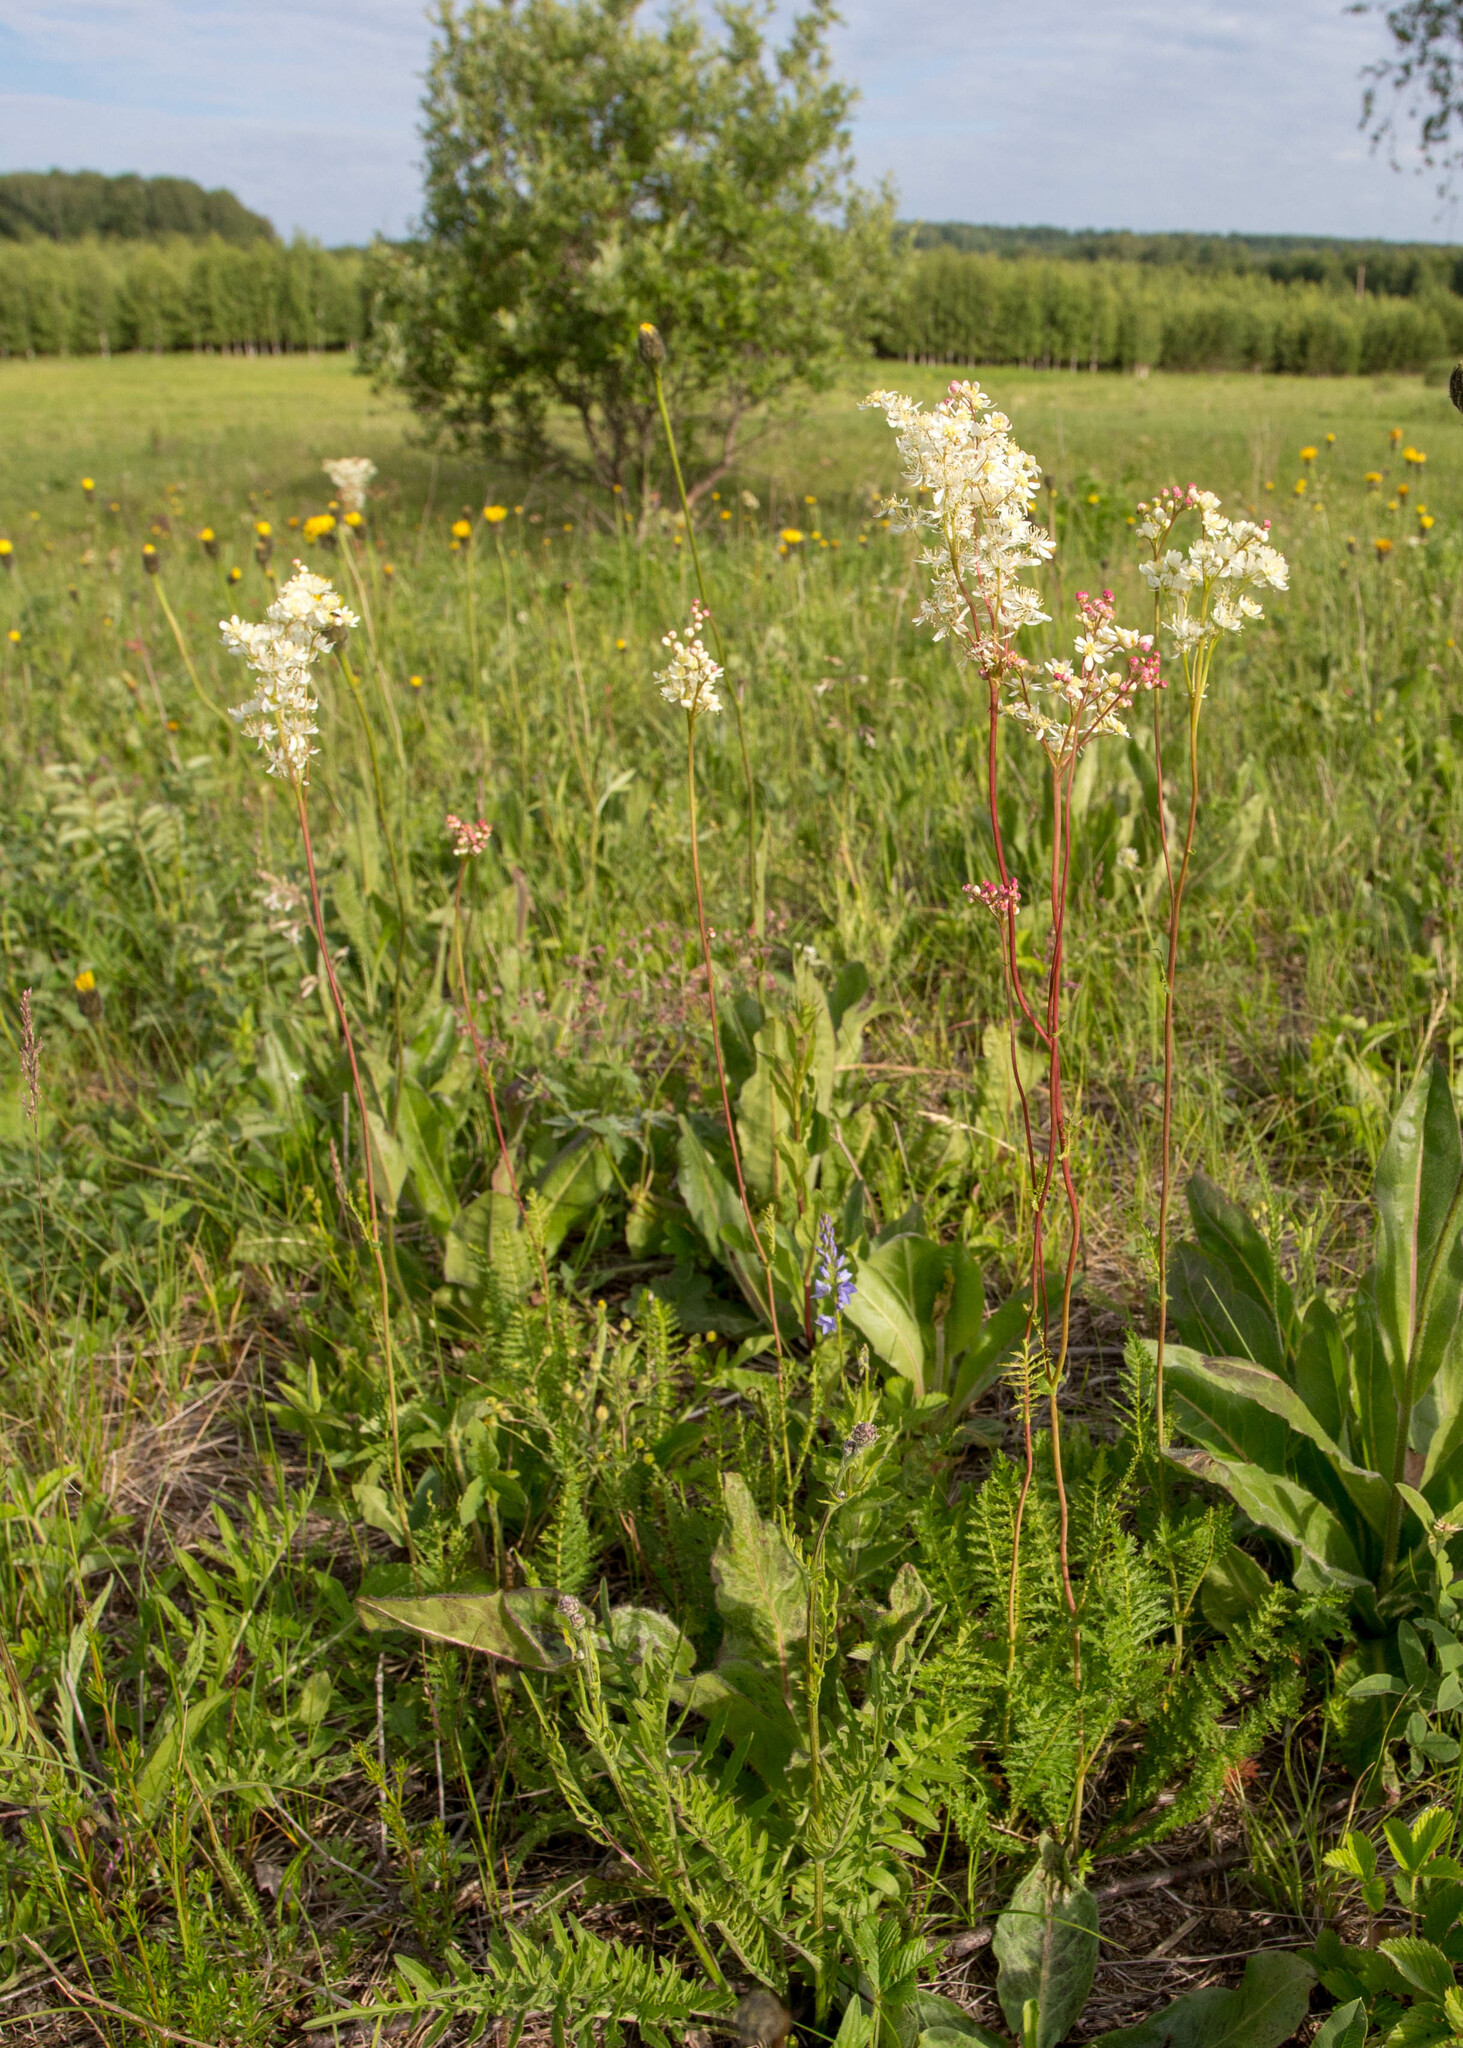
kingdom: Plantae
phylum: Tracheophyta
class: Magnoliopsida
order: Rosales
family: Rosaceae
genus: Filipendula
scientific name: Filipendula vulgaris
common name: Dropwort
